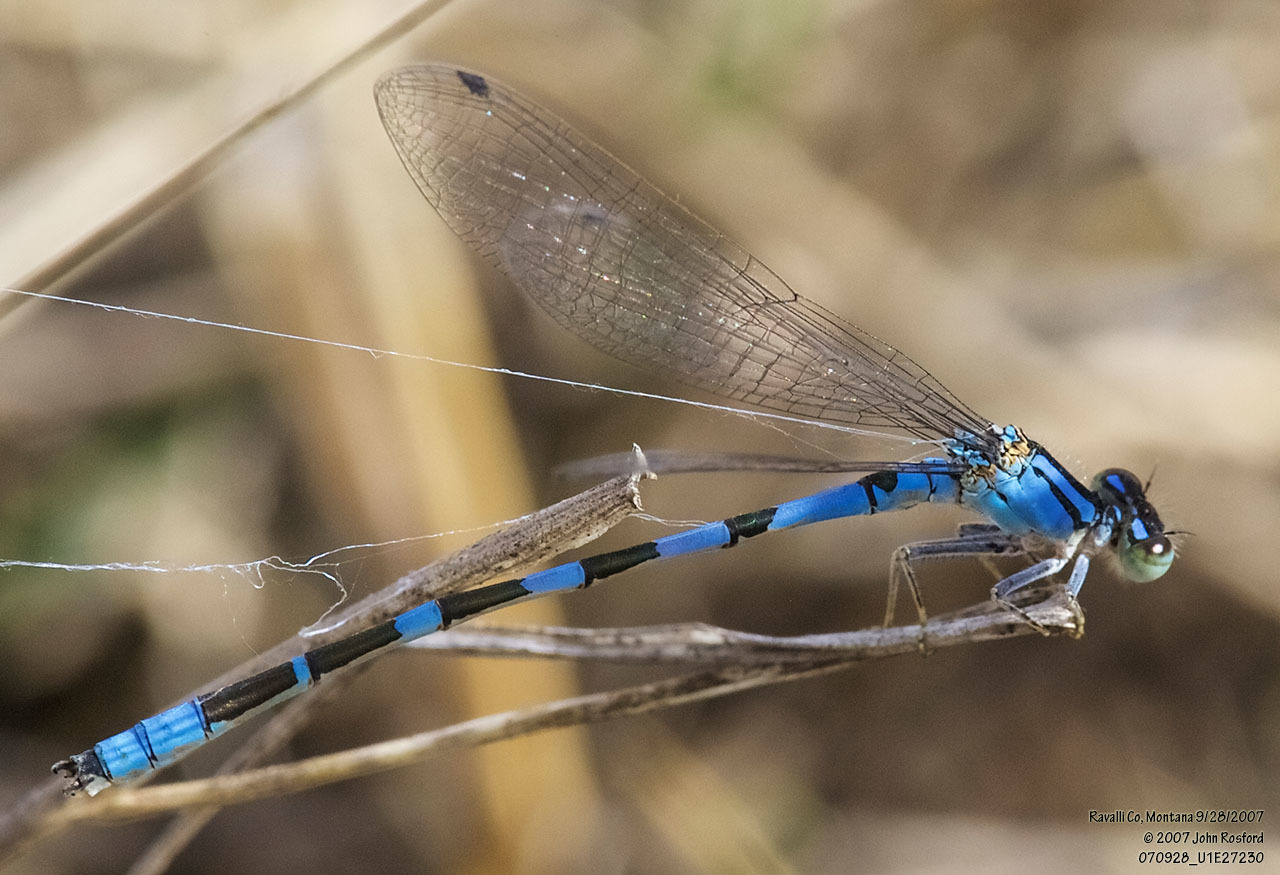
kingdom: Animalia
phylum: Arthropoda
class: Insecta
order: Odonata
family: Coenagrionidae
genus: Enallagma
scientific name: Enallagma anna
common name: River bluet
